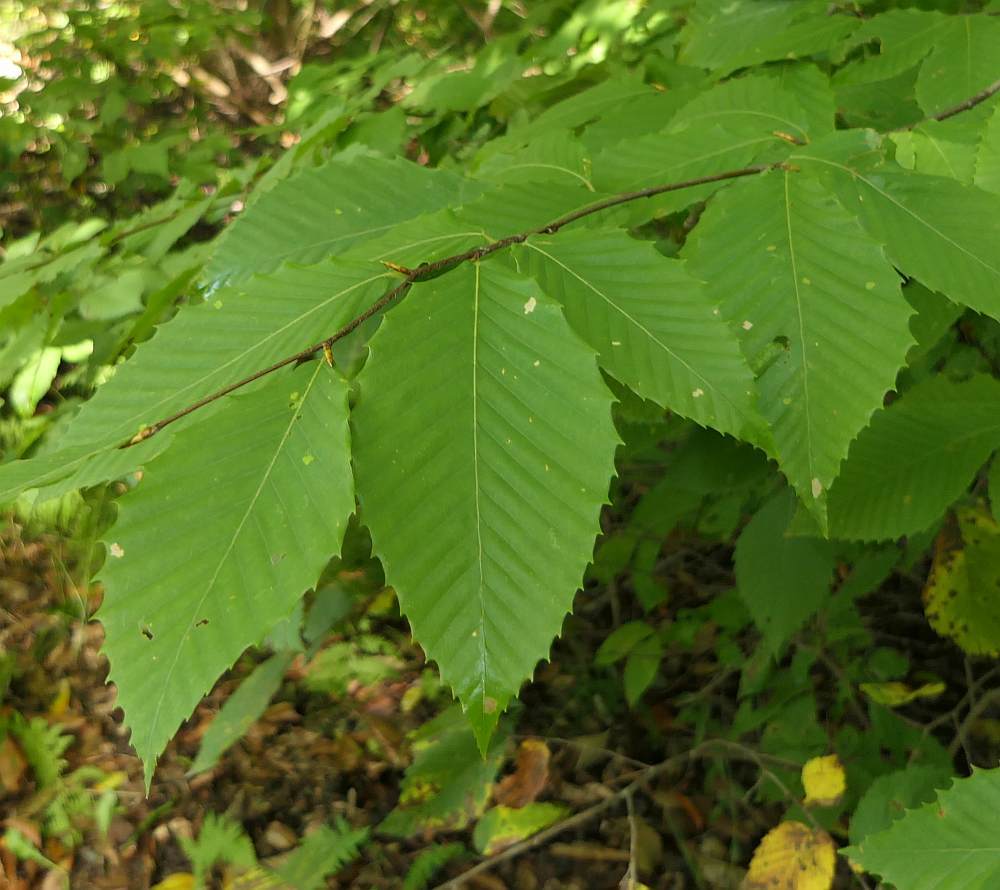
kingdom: Plantae
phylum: Tracheophyta
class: Magnoliopsida
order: Fagales
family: Fagaceae
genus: Fagus
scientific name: Fagus grandifolia
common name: American beech
